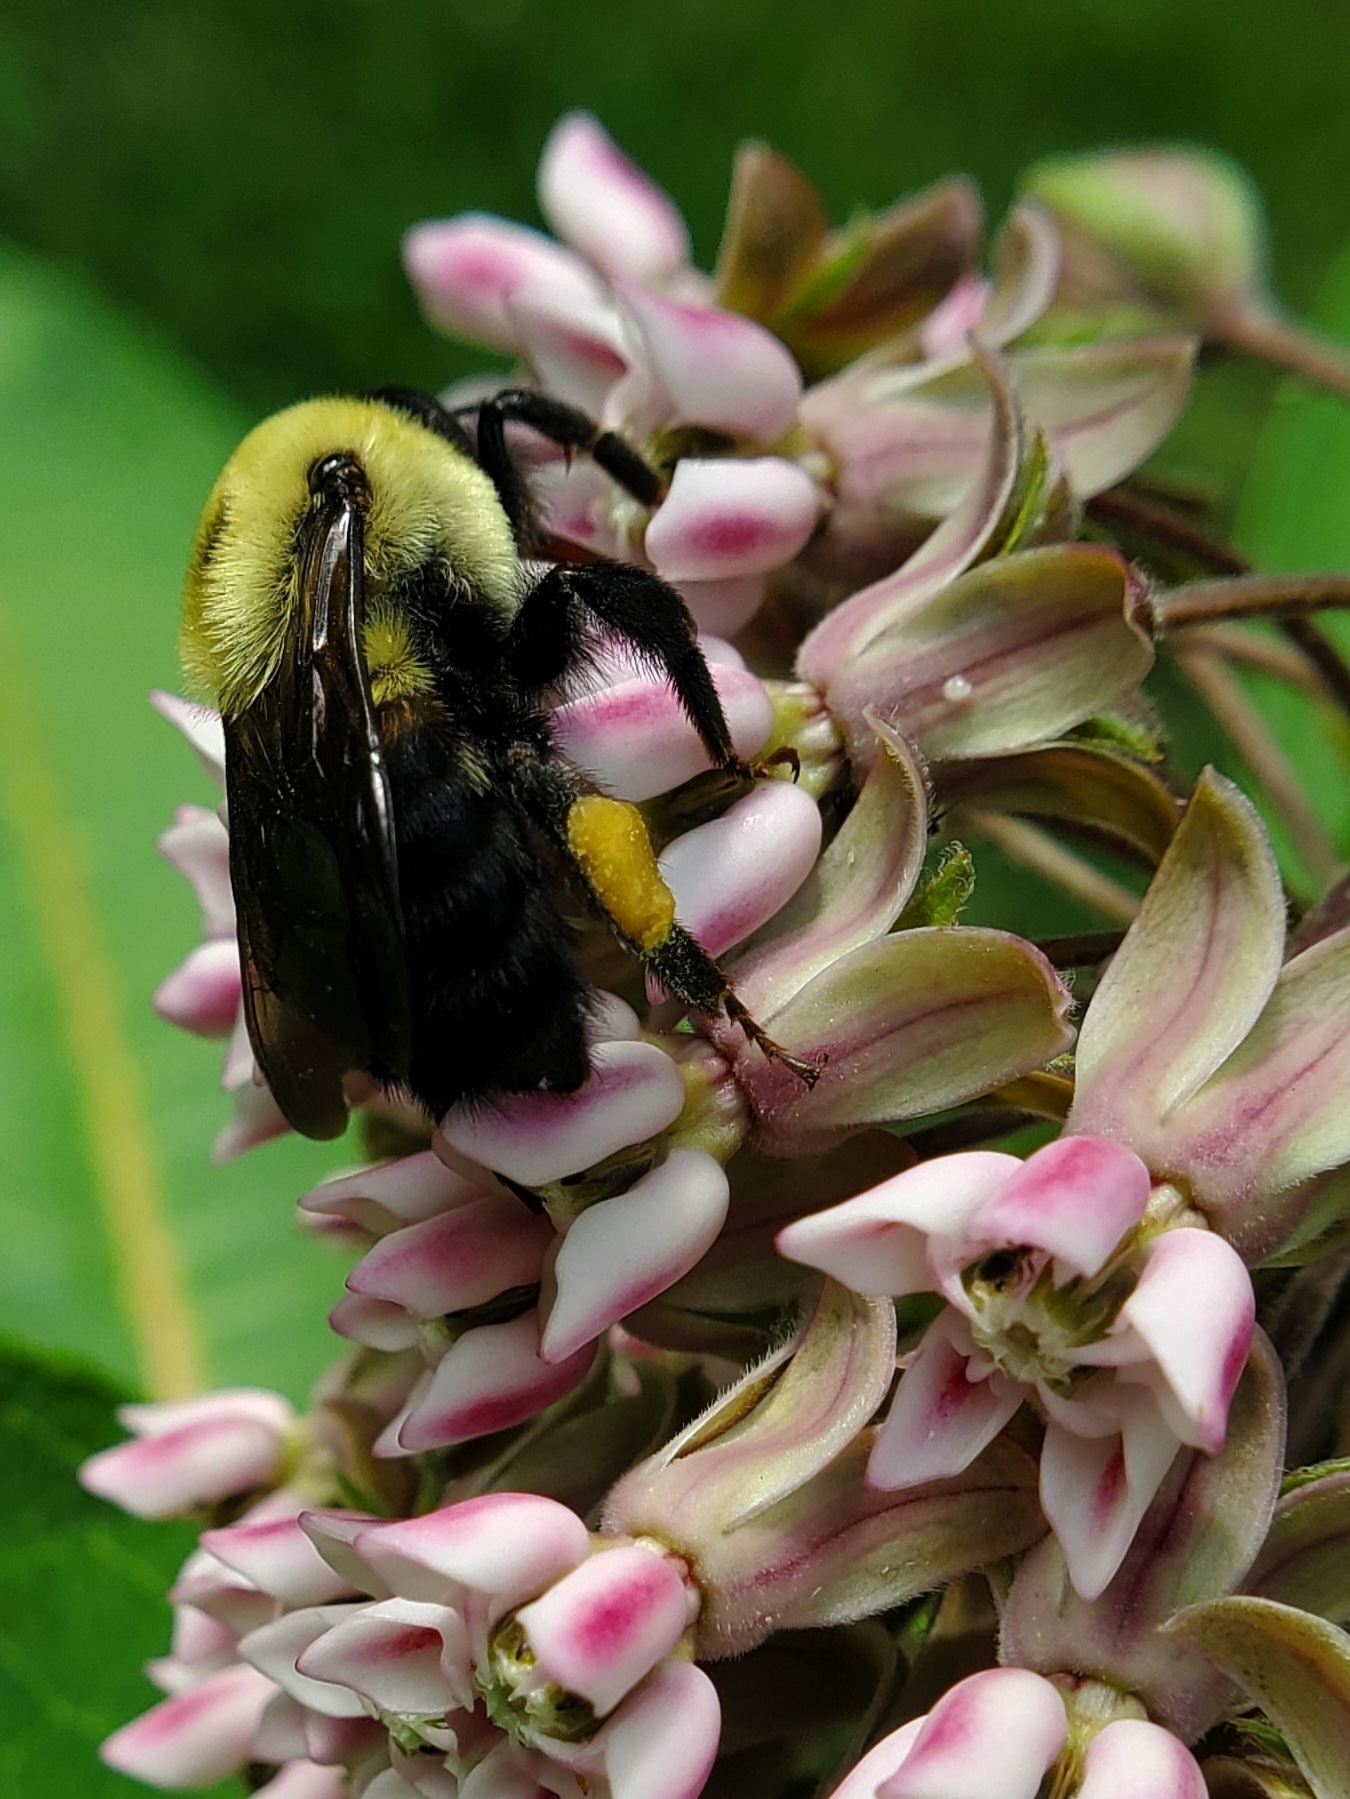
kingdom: Animalia
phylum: Arthropoda
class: Insecta
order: Hymenoptera
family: Apidae
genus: Bombus
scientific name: Bombus griseocollis
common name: Brown-belted bumble bee
